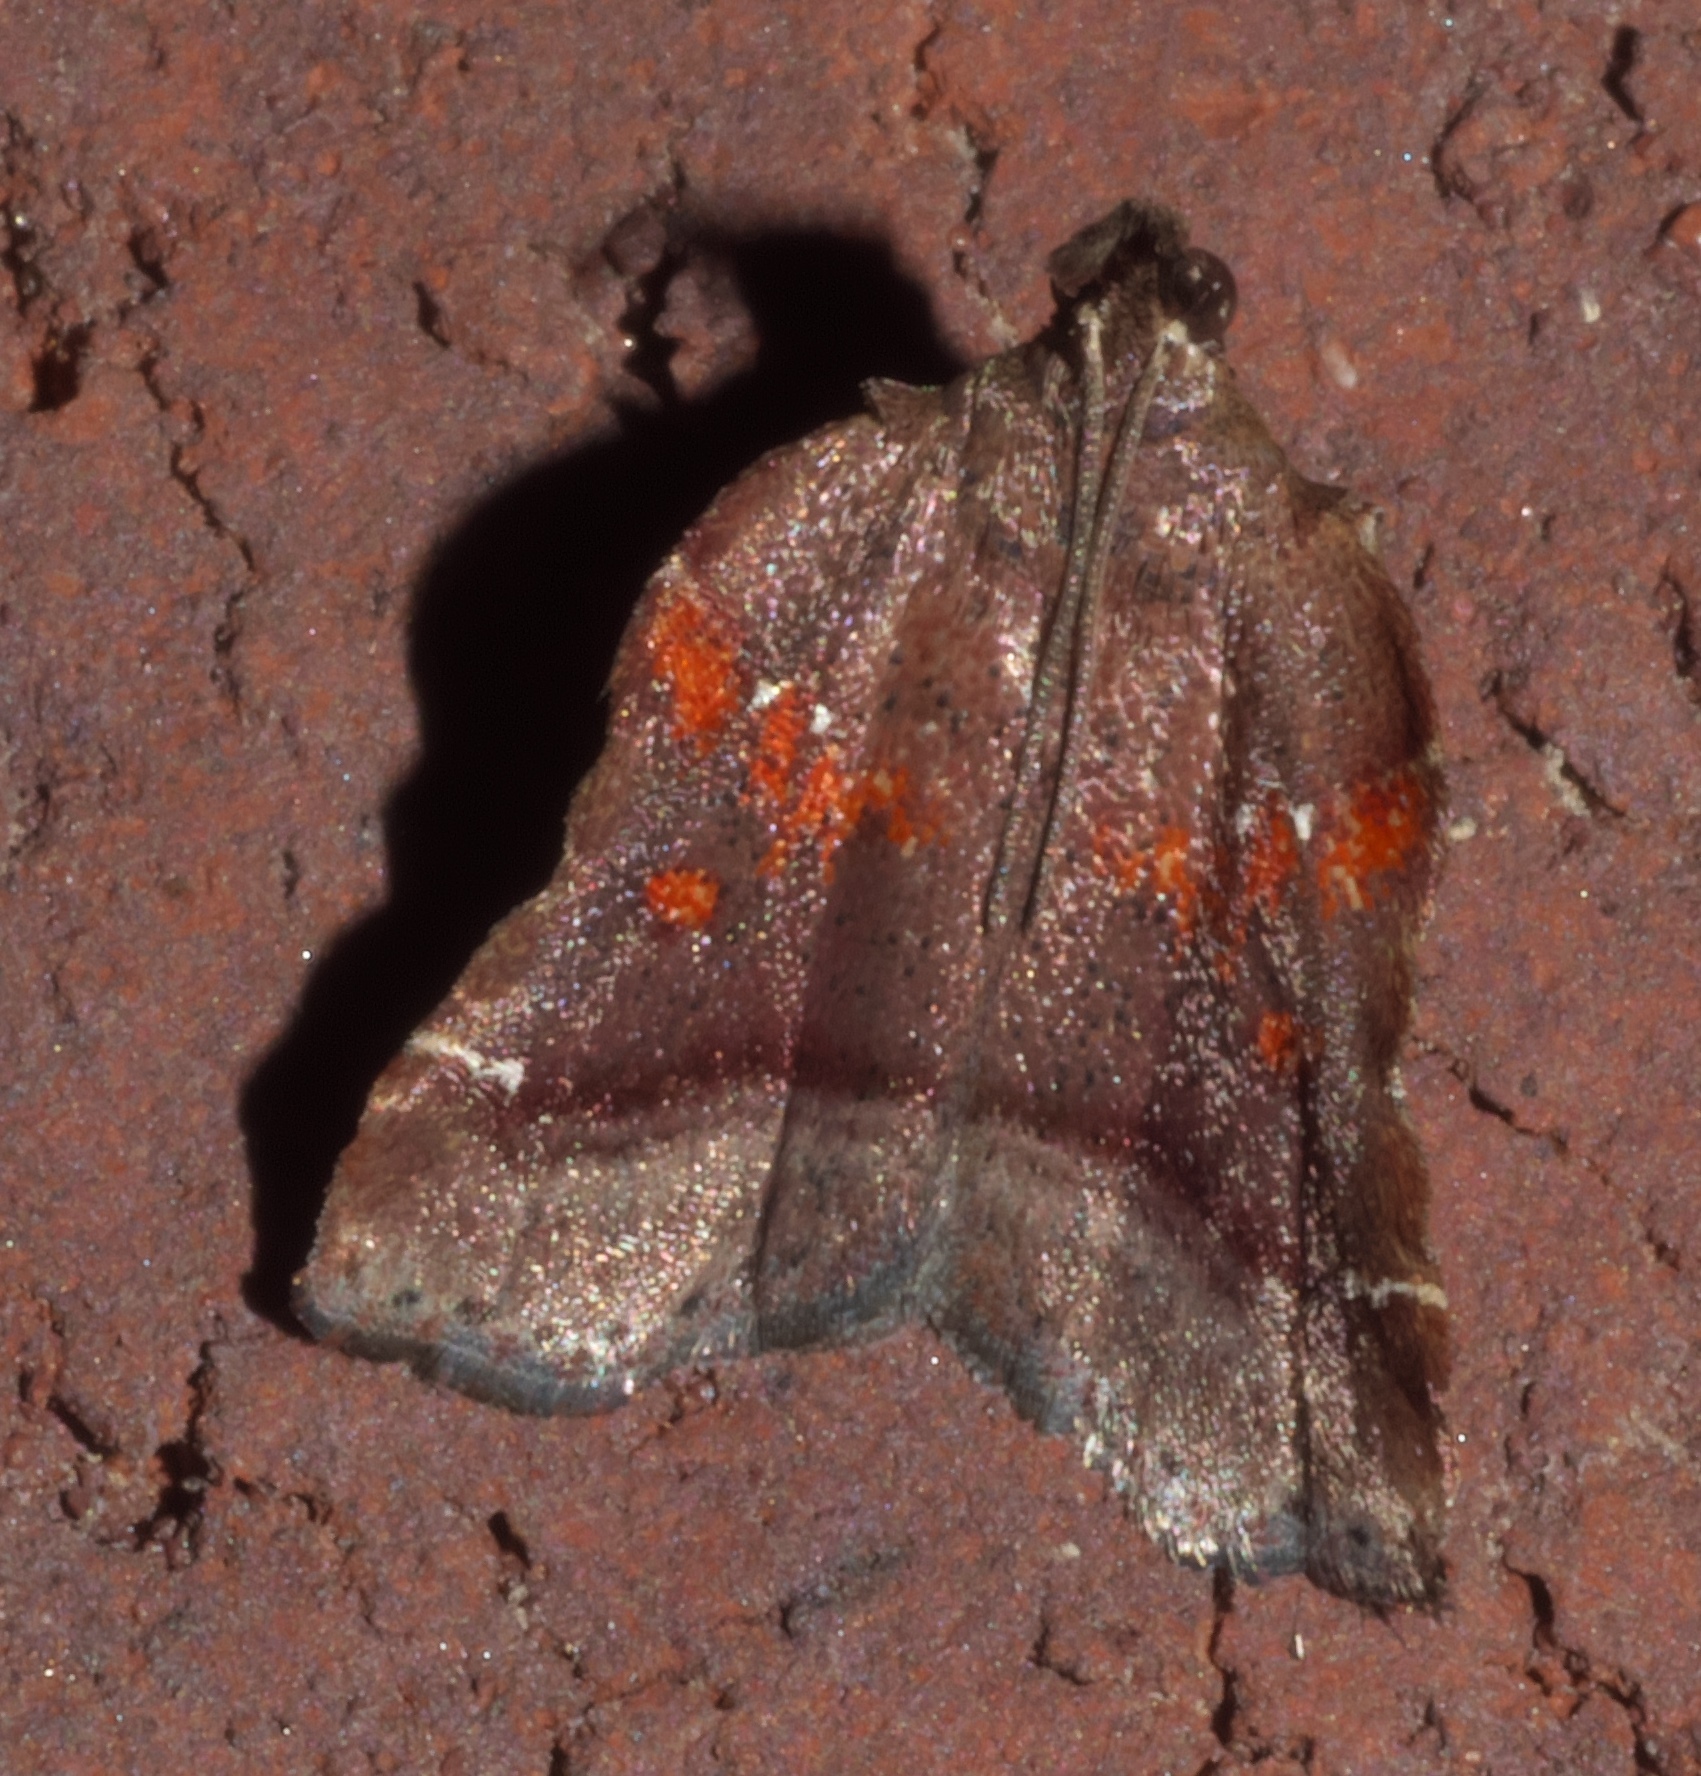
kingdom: Animalia
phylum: Arthropoda
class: Insecta
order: Lepidoptera
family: Pyralidae
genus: Clydonopteron
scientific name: Clydonopteron sacculana
